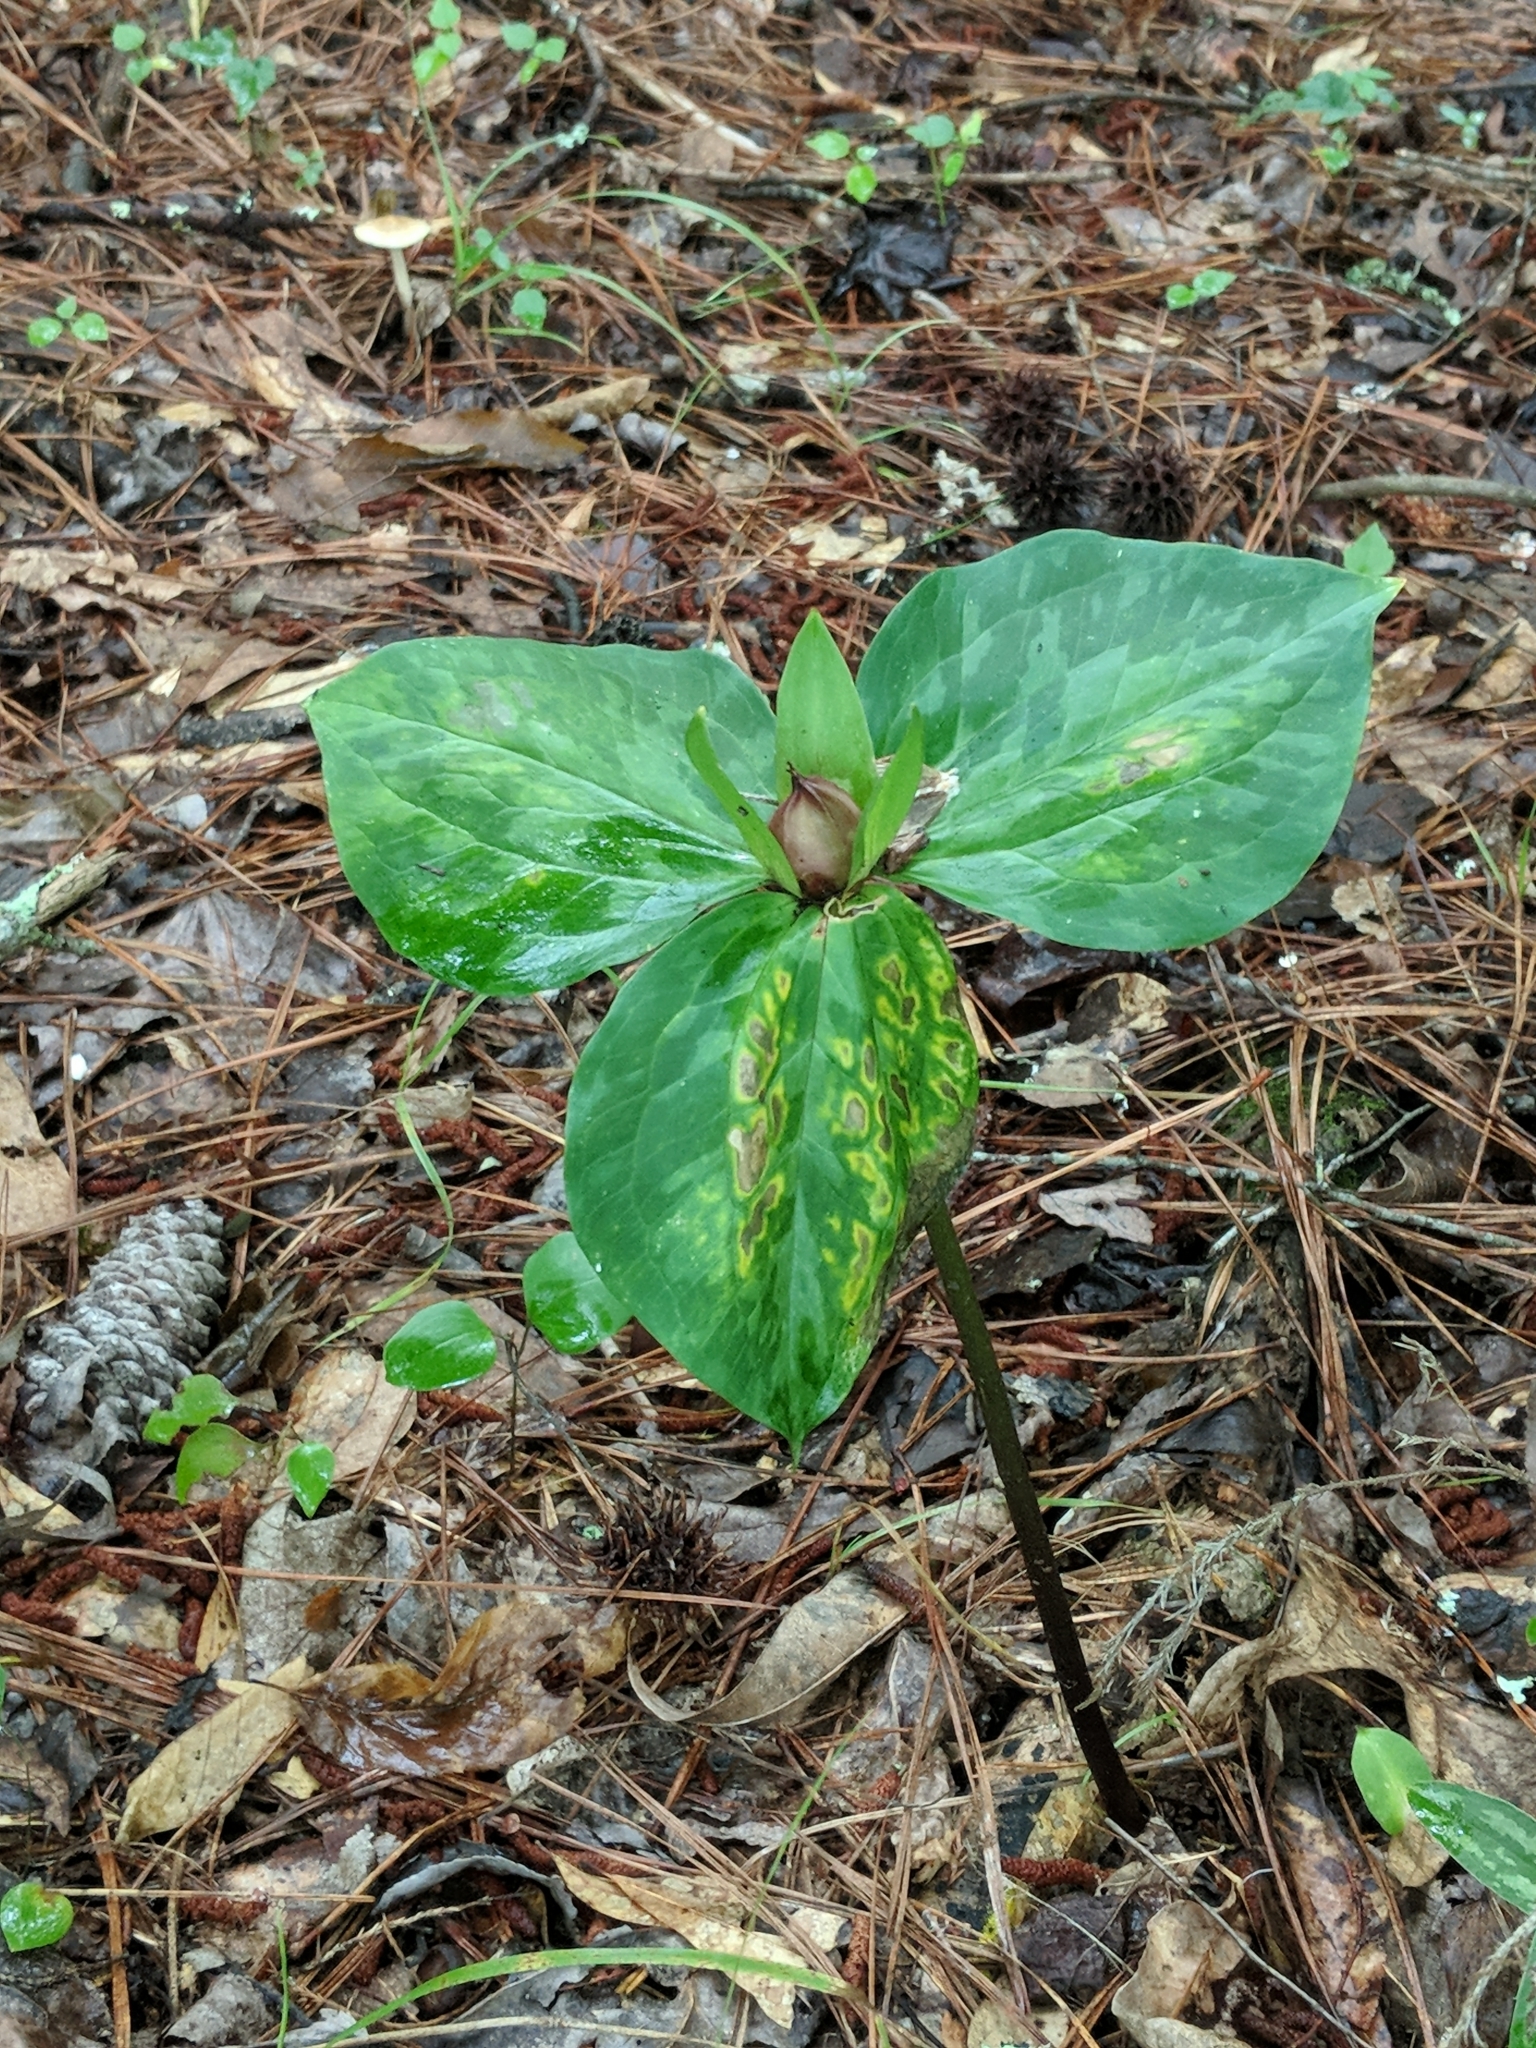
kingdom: Plantae
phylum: Tracheophyta
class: Liliopsida
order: Liliales
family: Melanthiaceae
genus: Trillium
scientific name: Trillium
